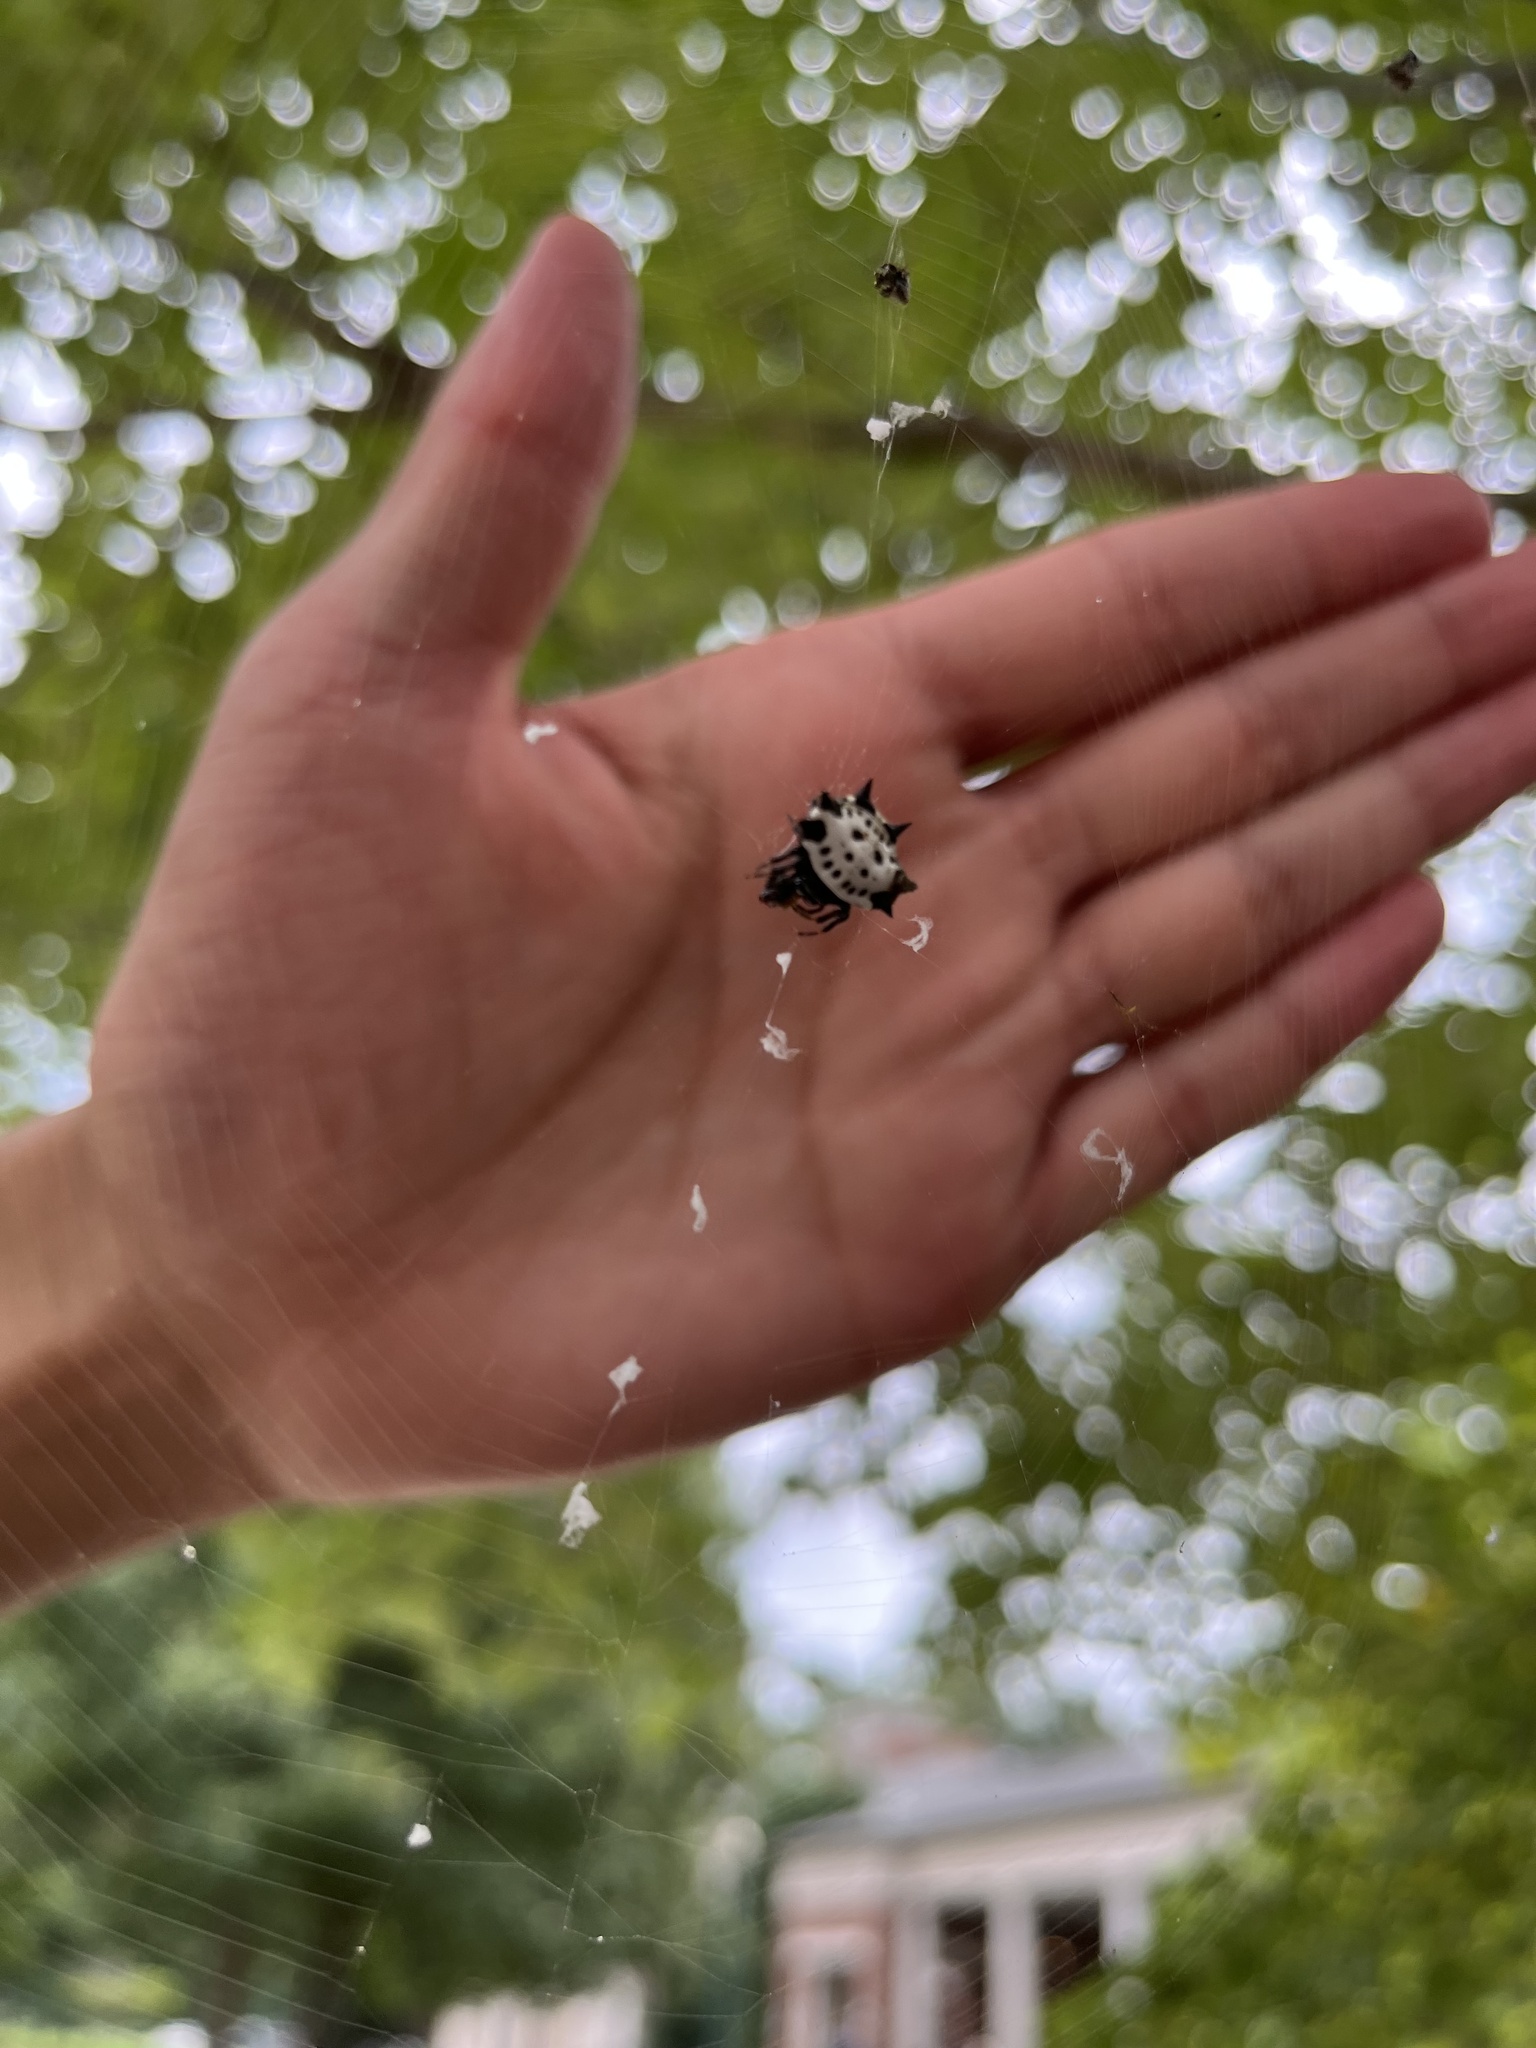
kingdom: Animalia
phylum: Arthropoda
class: Arachnida
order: Araneae
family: Araneidae
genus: Gasteracantha
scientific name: Gasteracantha cancriformis
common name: Orb weavers
